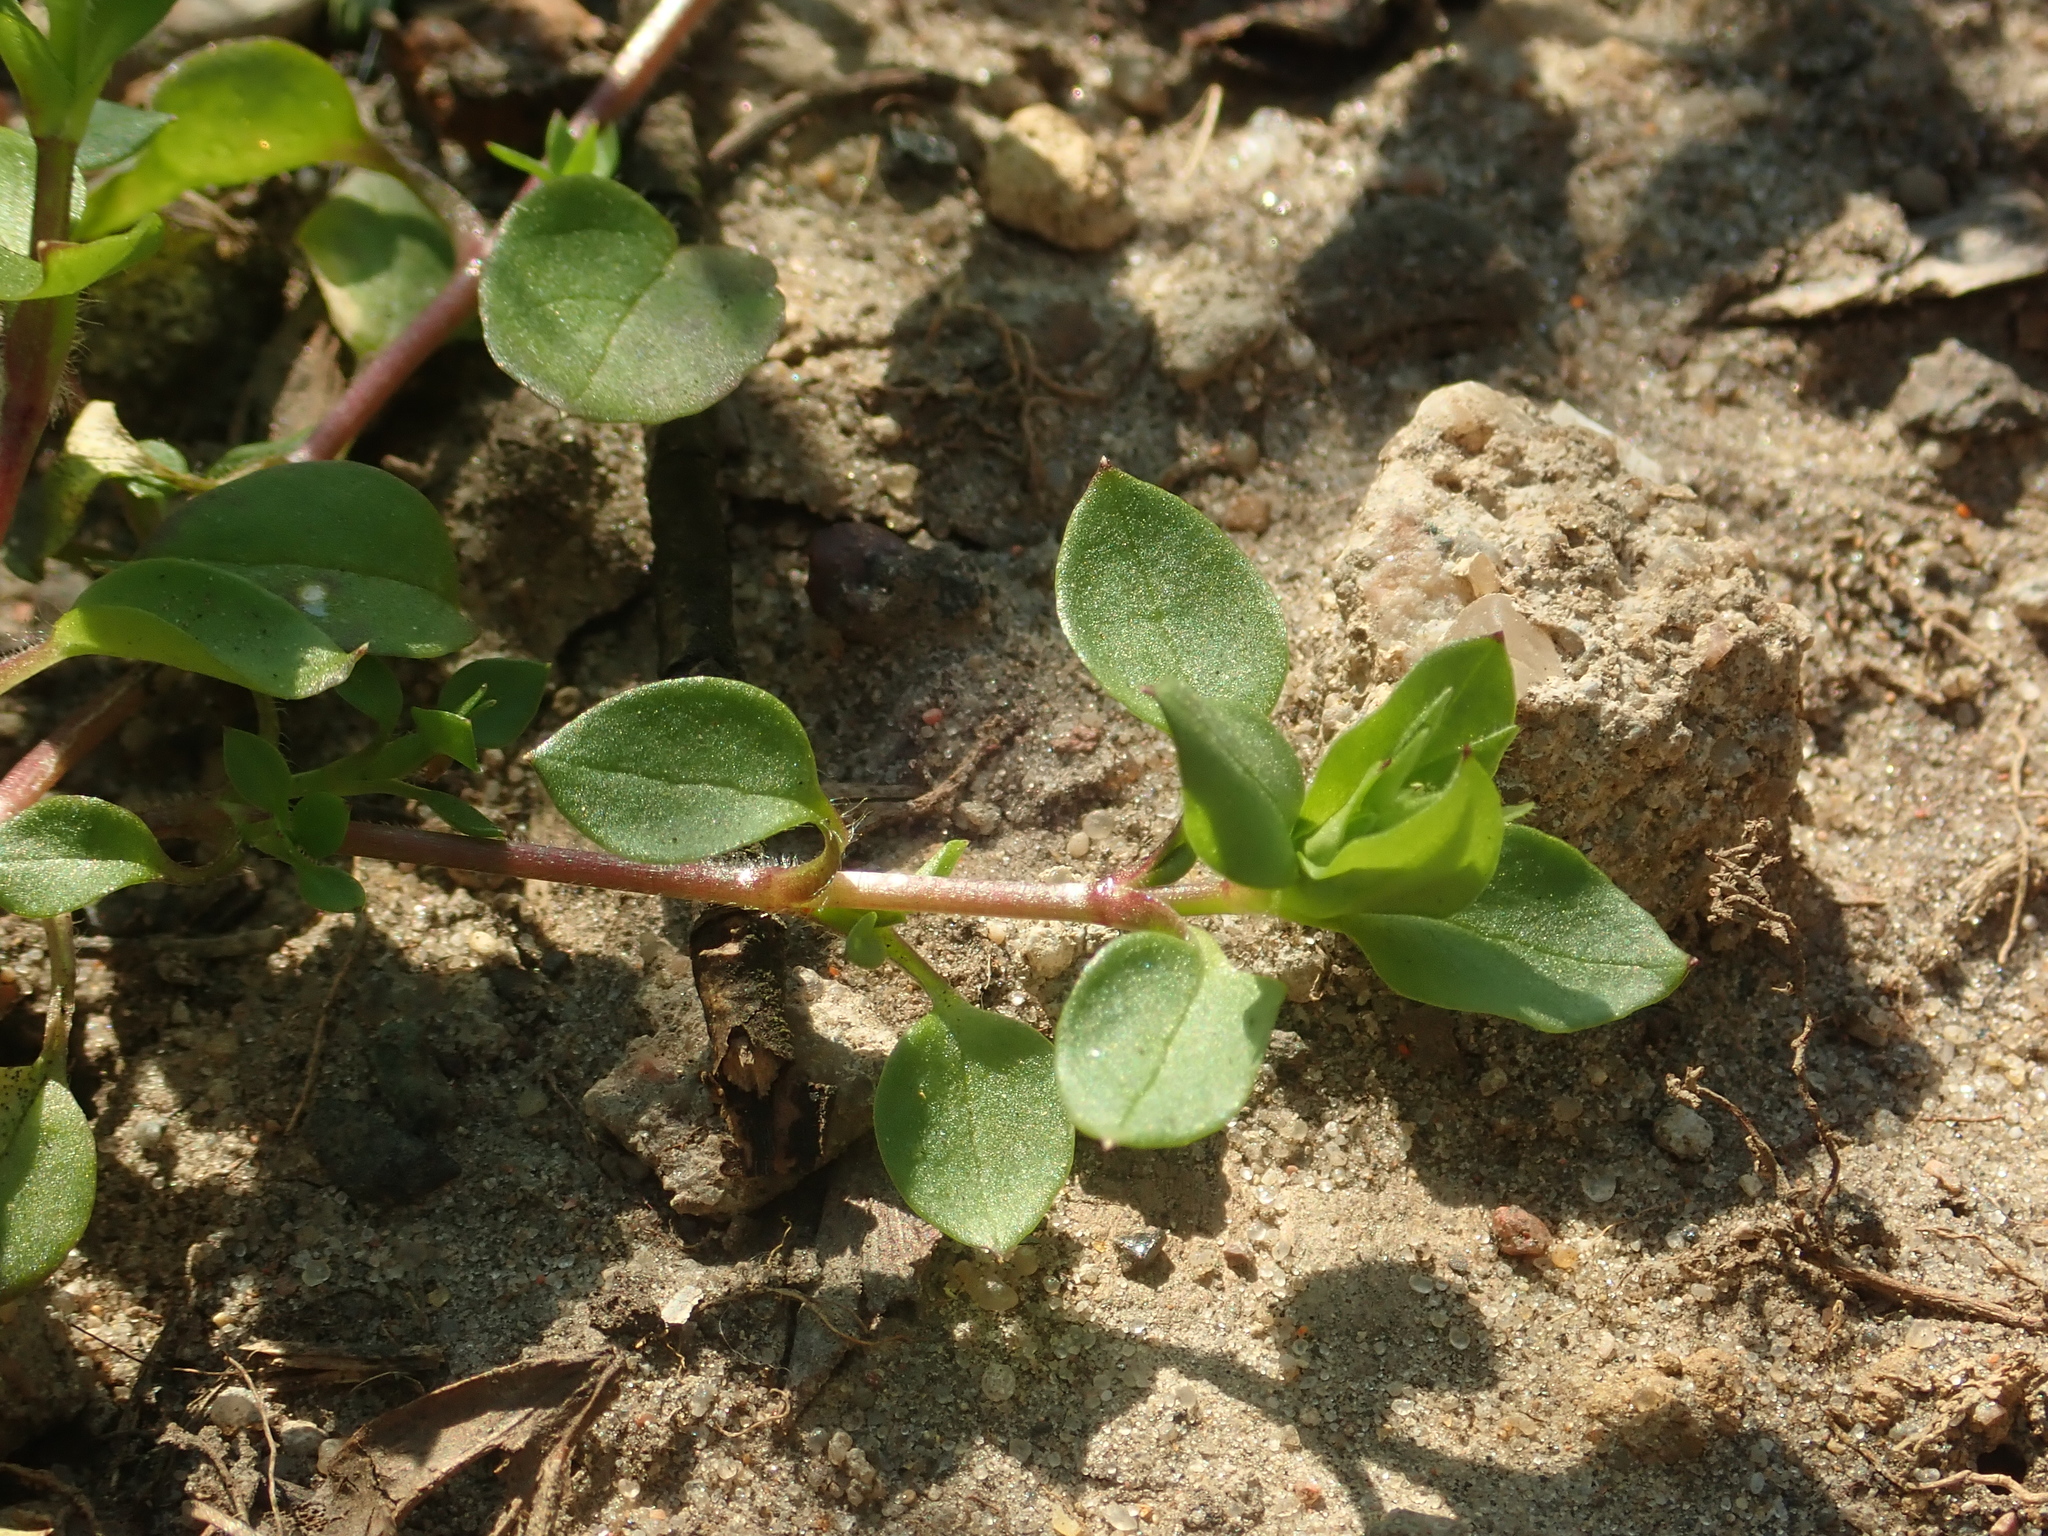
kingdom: Plantae
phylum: Tracheophyta
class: Magnoliopsida
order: Caryophyllales
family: Caryophyllaceae
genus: Stellaria
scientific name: Stellaria media
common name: Common chickweed
